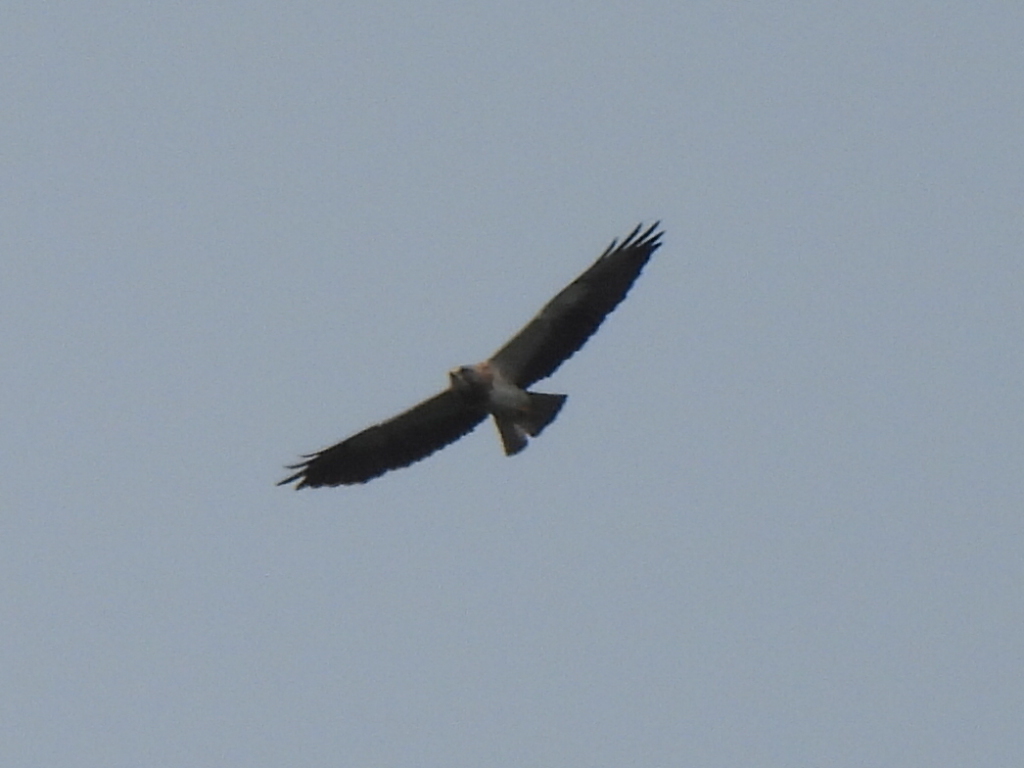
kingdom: Animalia
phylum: Chordata
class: Aves
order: Accipitriformes
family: Accipitridae
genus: Buteo
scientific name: Buteo swainsoni
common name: Swainson's hawk
